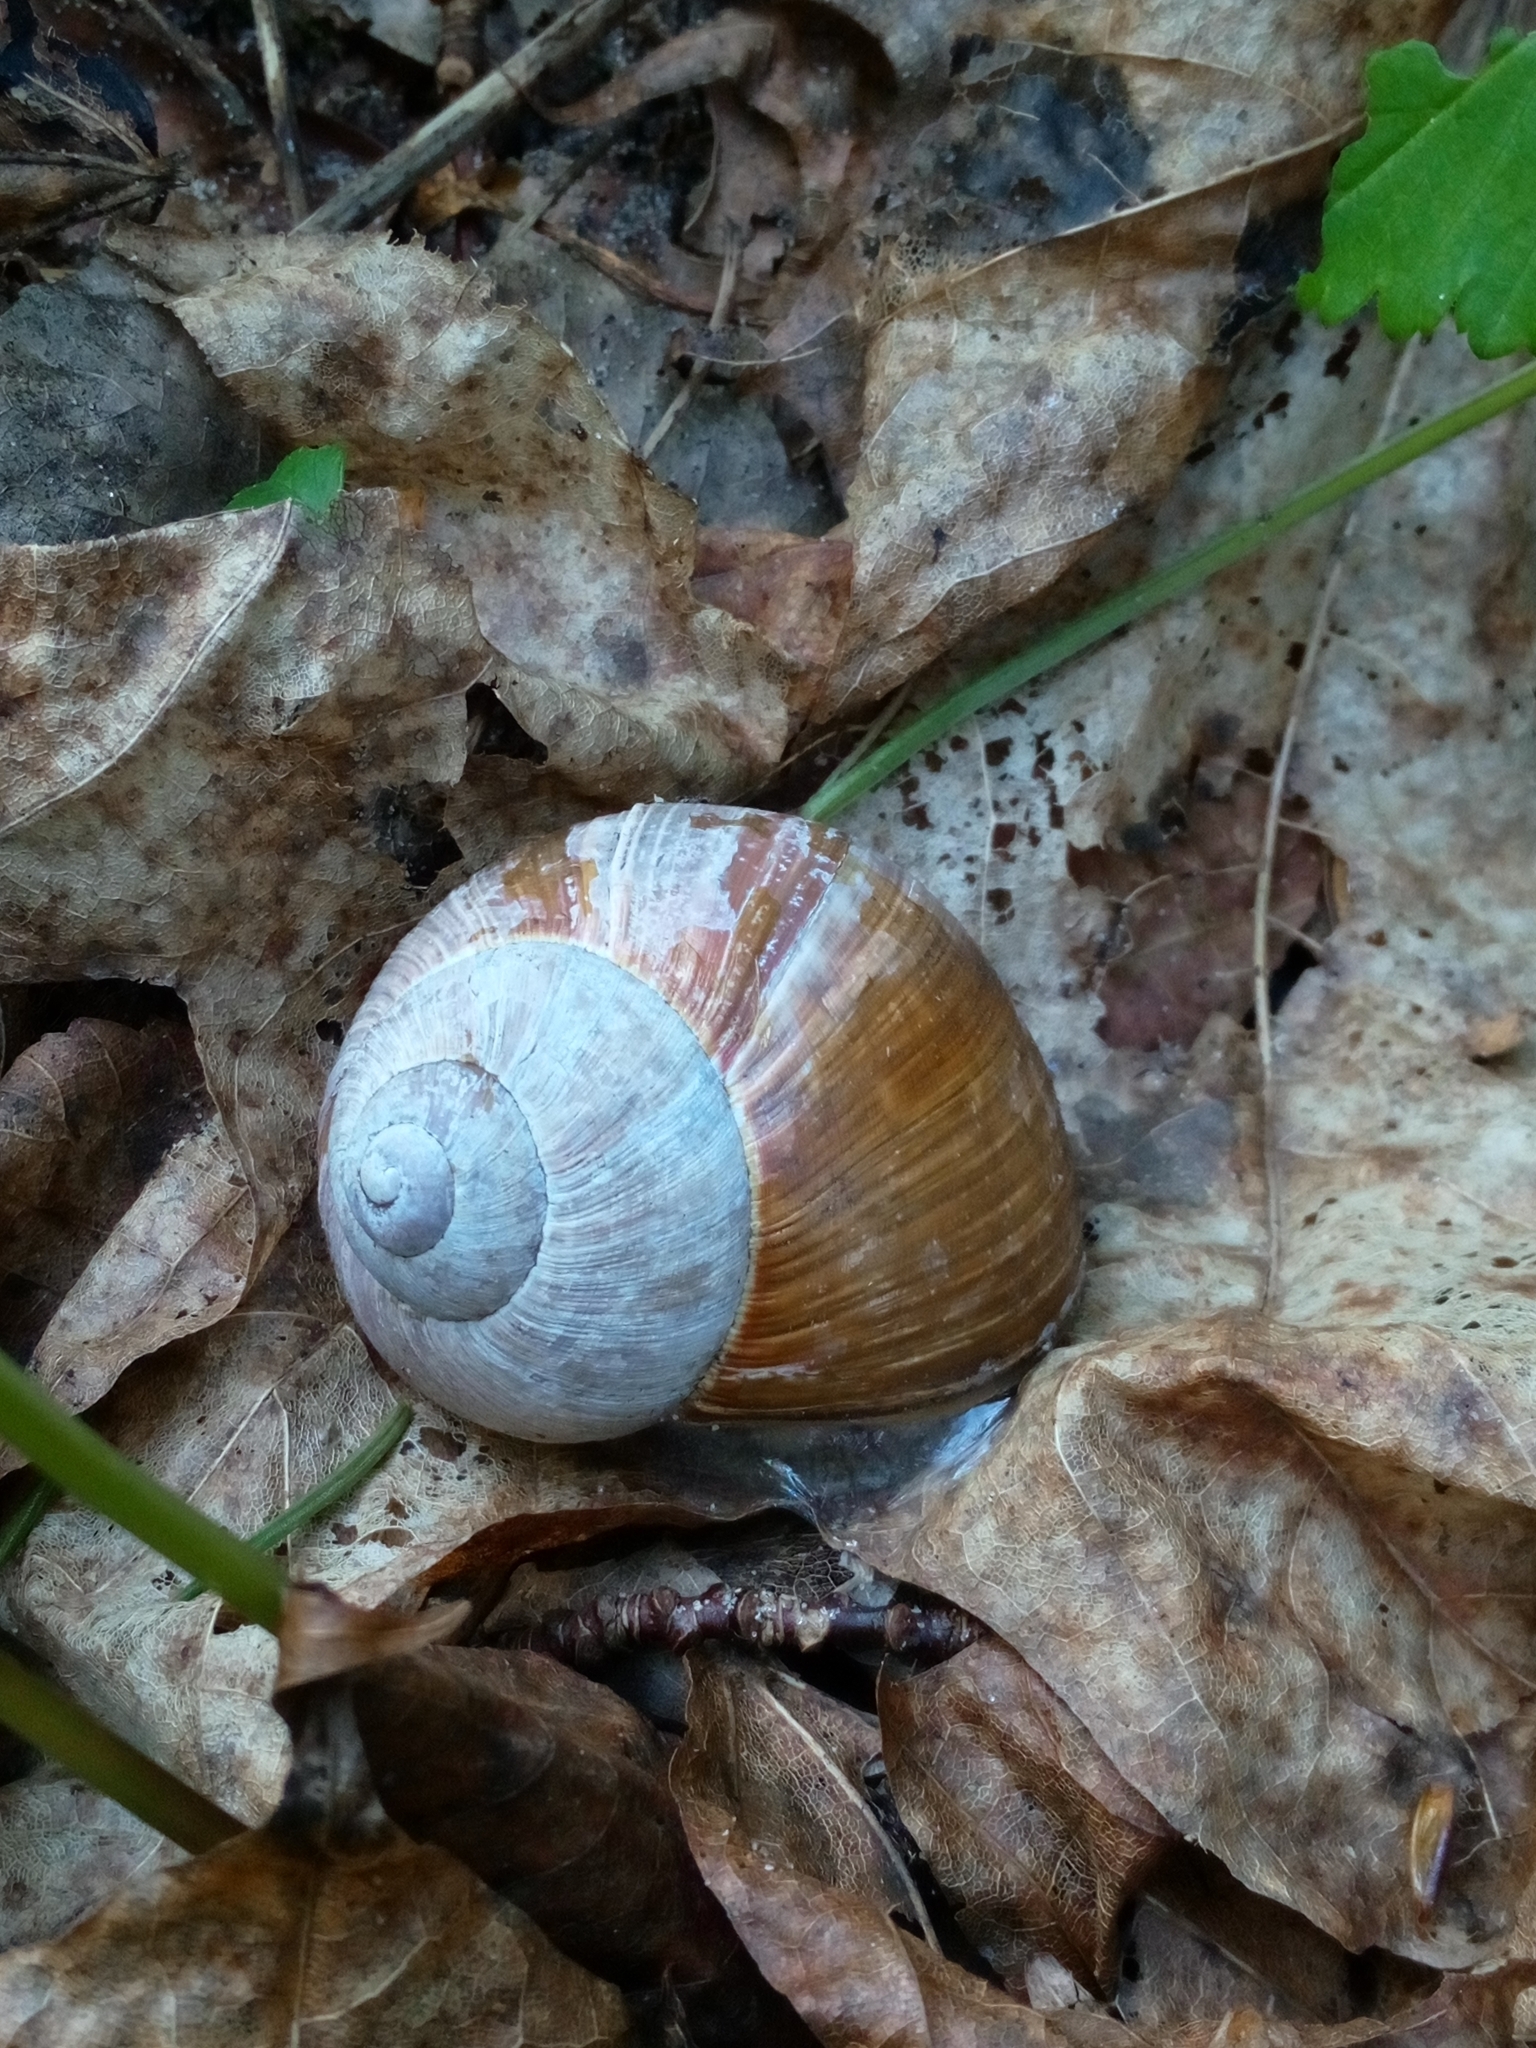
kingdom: Animalia
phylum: Mollusca
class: Gastropoda
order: Stylommatophora
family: Helicidae
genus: Helix
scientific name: Helix pomatia
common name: Roman snail
